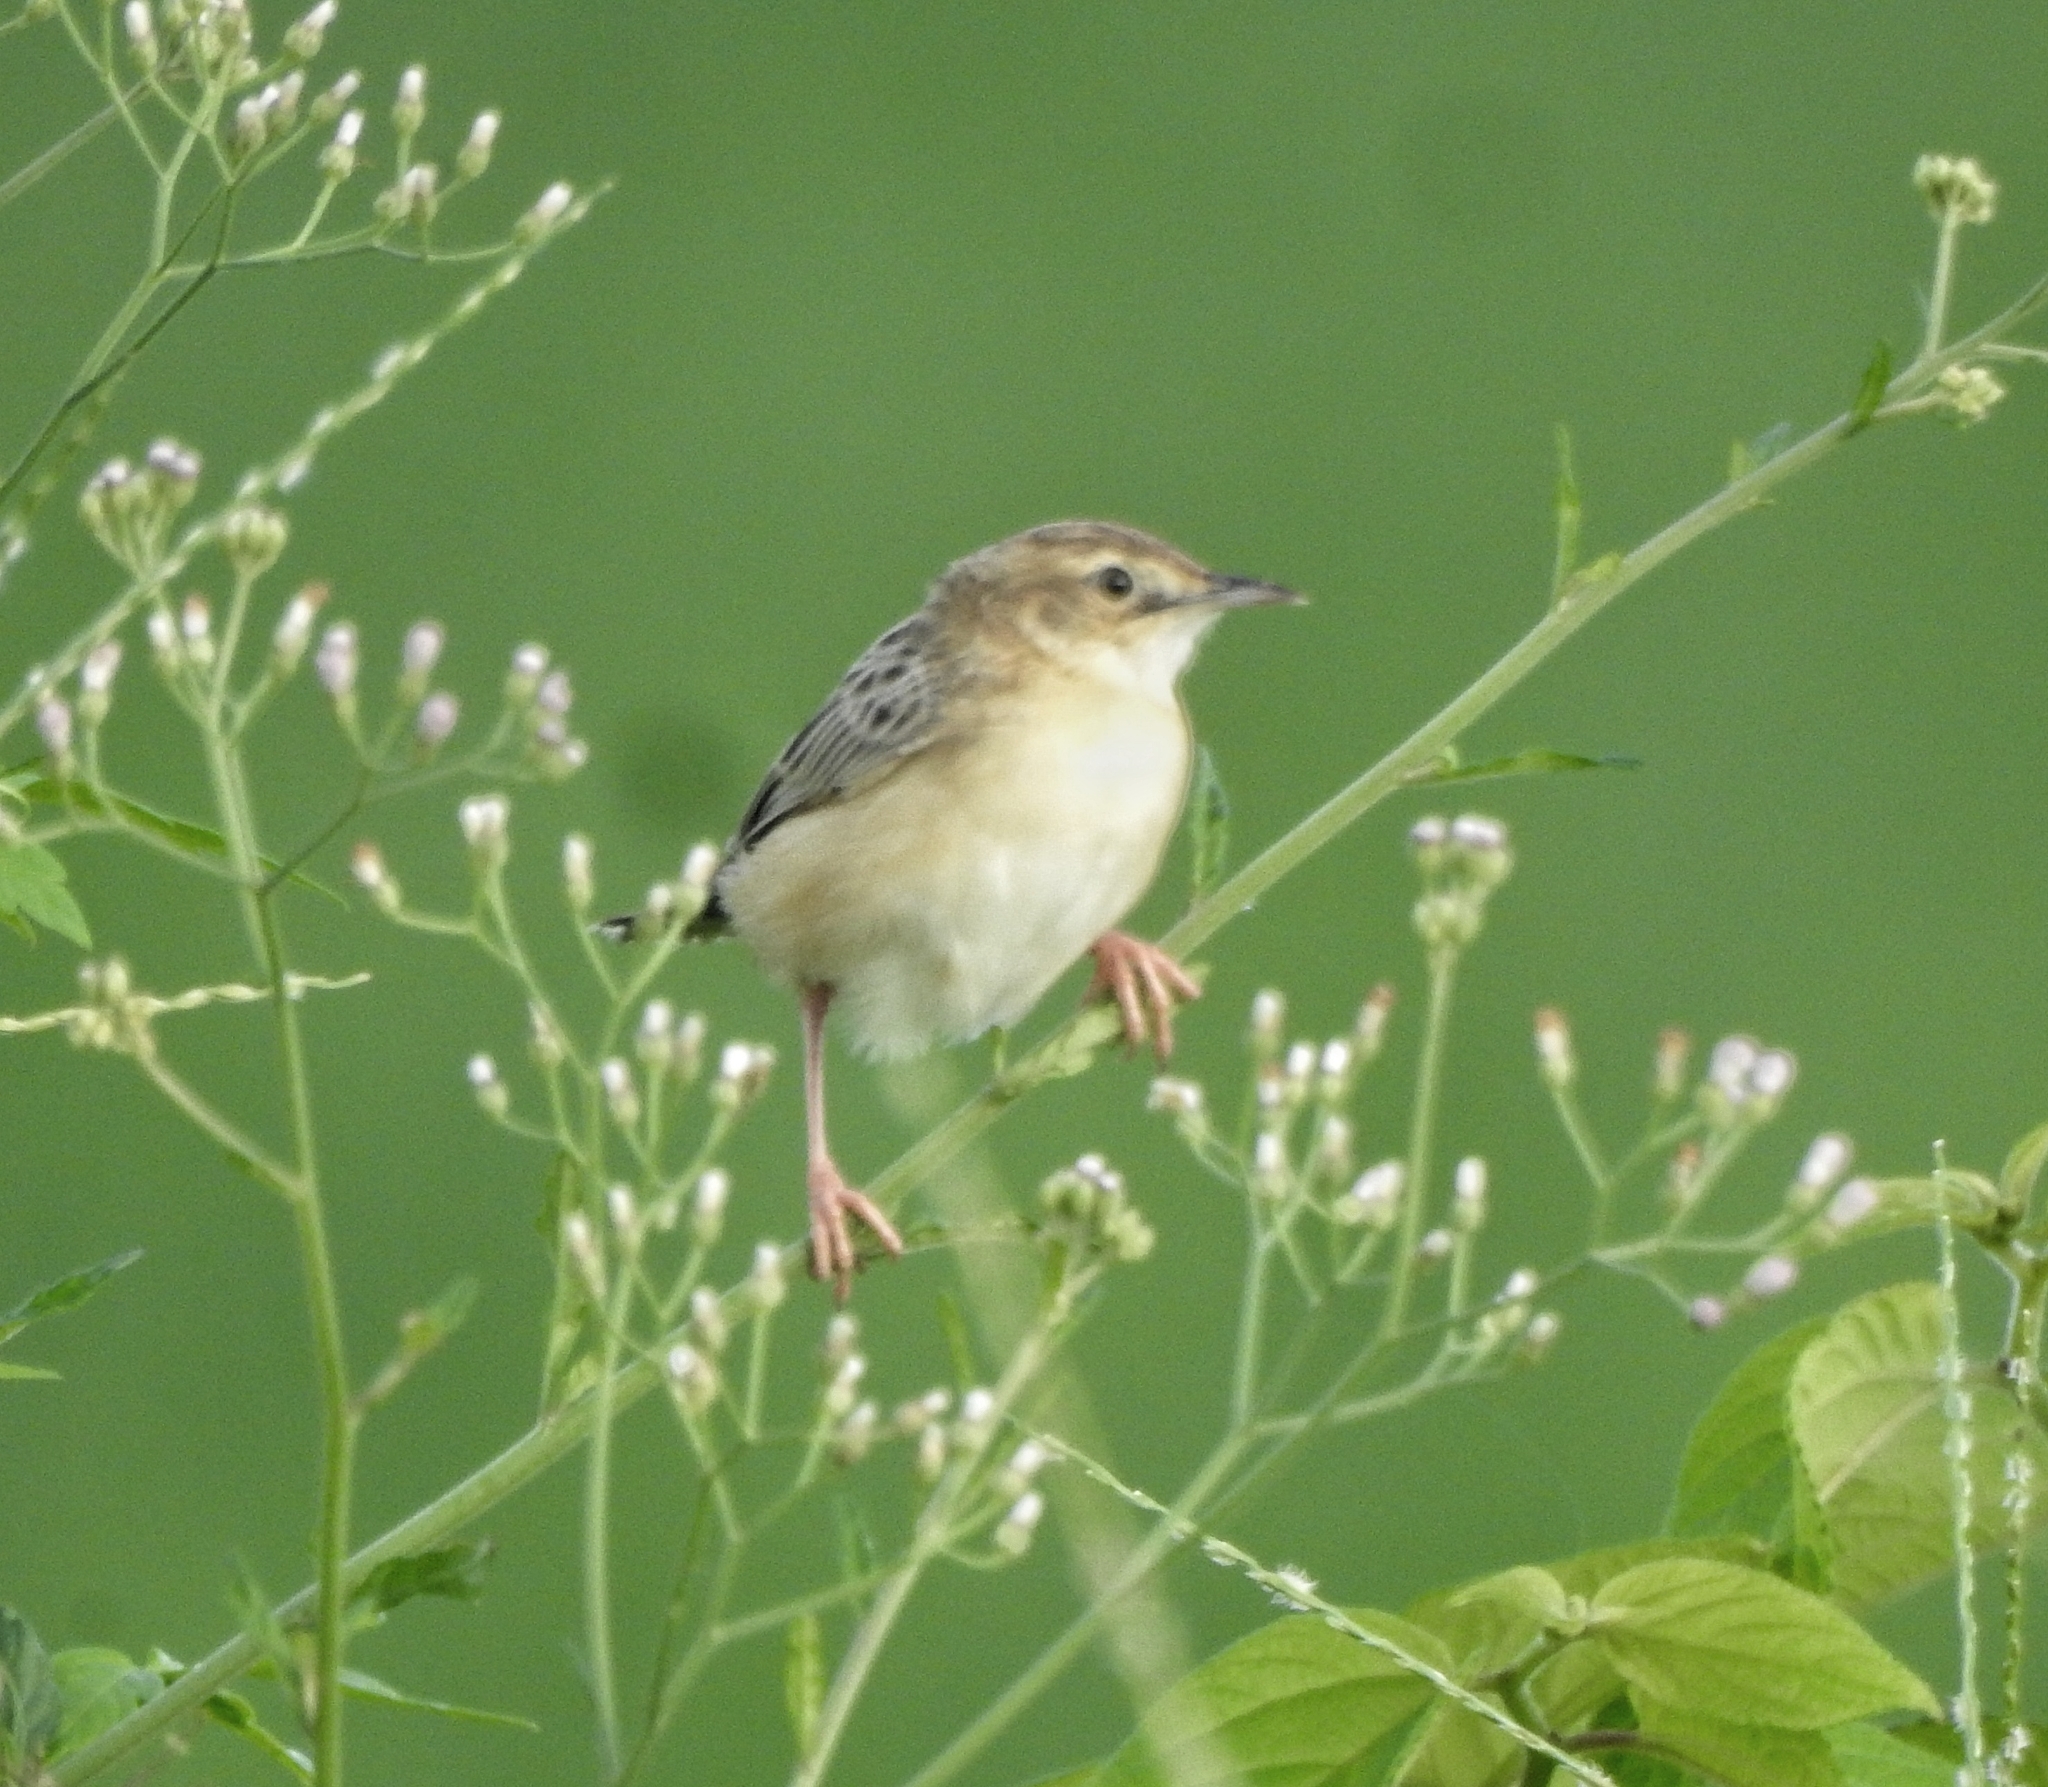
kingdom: Animalia
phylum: Chordata
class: Aves
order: Passeriformes
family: Cisticolidae
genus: Cisticola
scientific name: Cisticola juncidis
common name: Zitting cisticola
